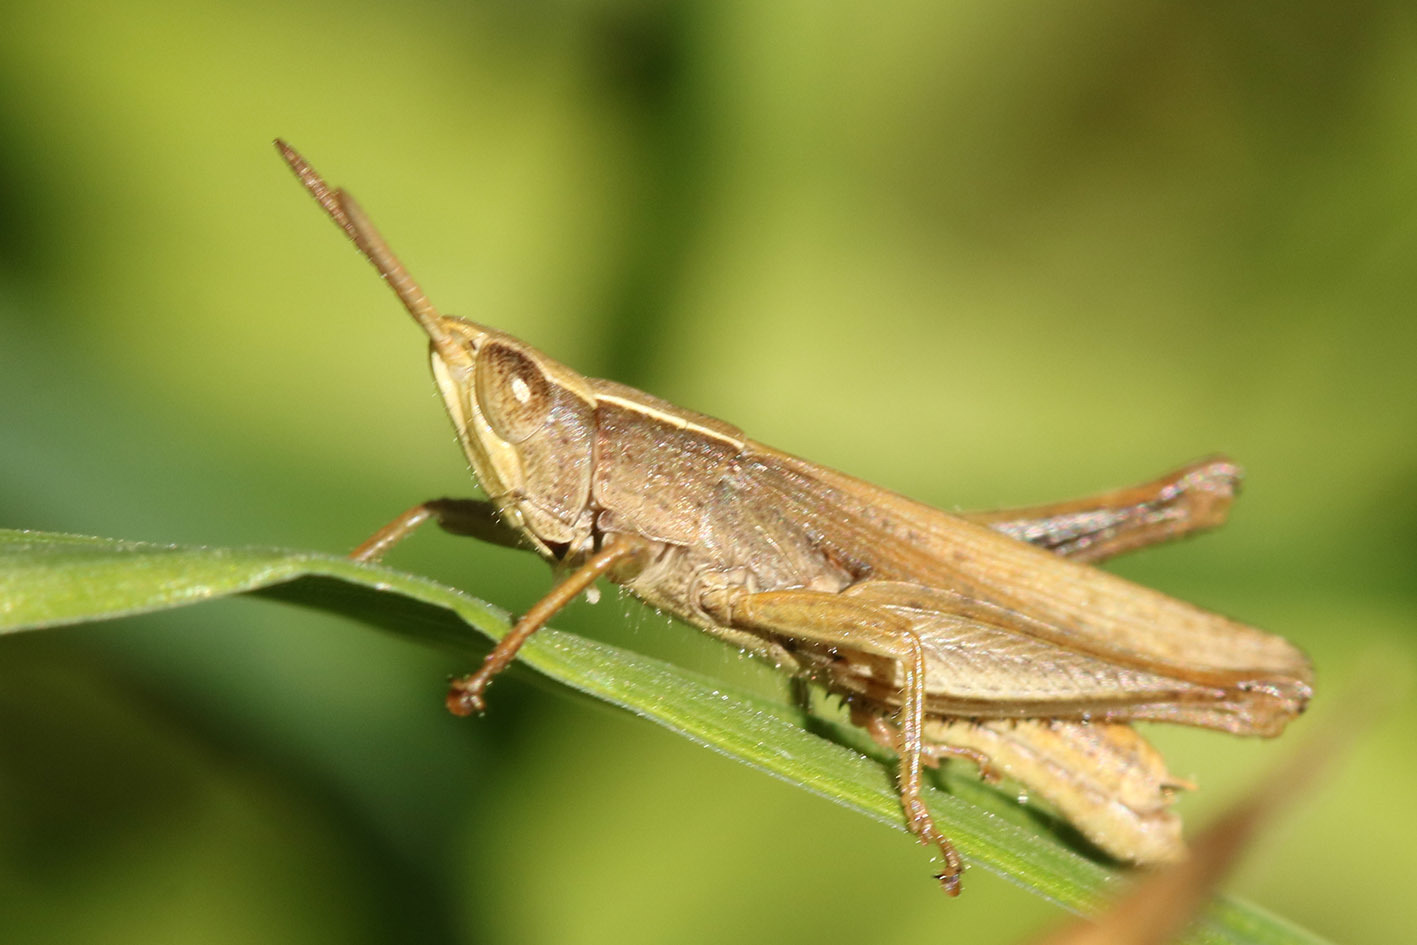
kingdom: Animalia
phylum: Arthropoda
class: Insecta
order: Orthoptera
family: Acrididae
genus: Laplatacris
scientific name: Laplatacris dispar
